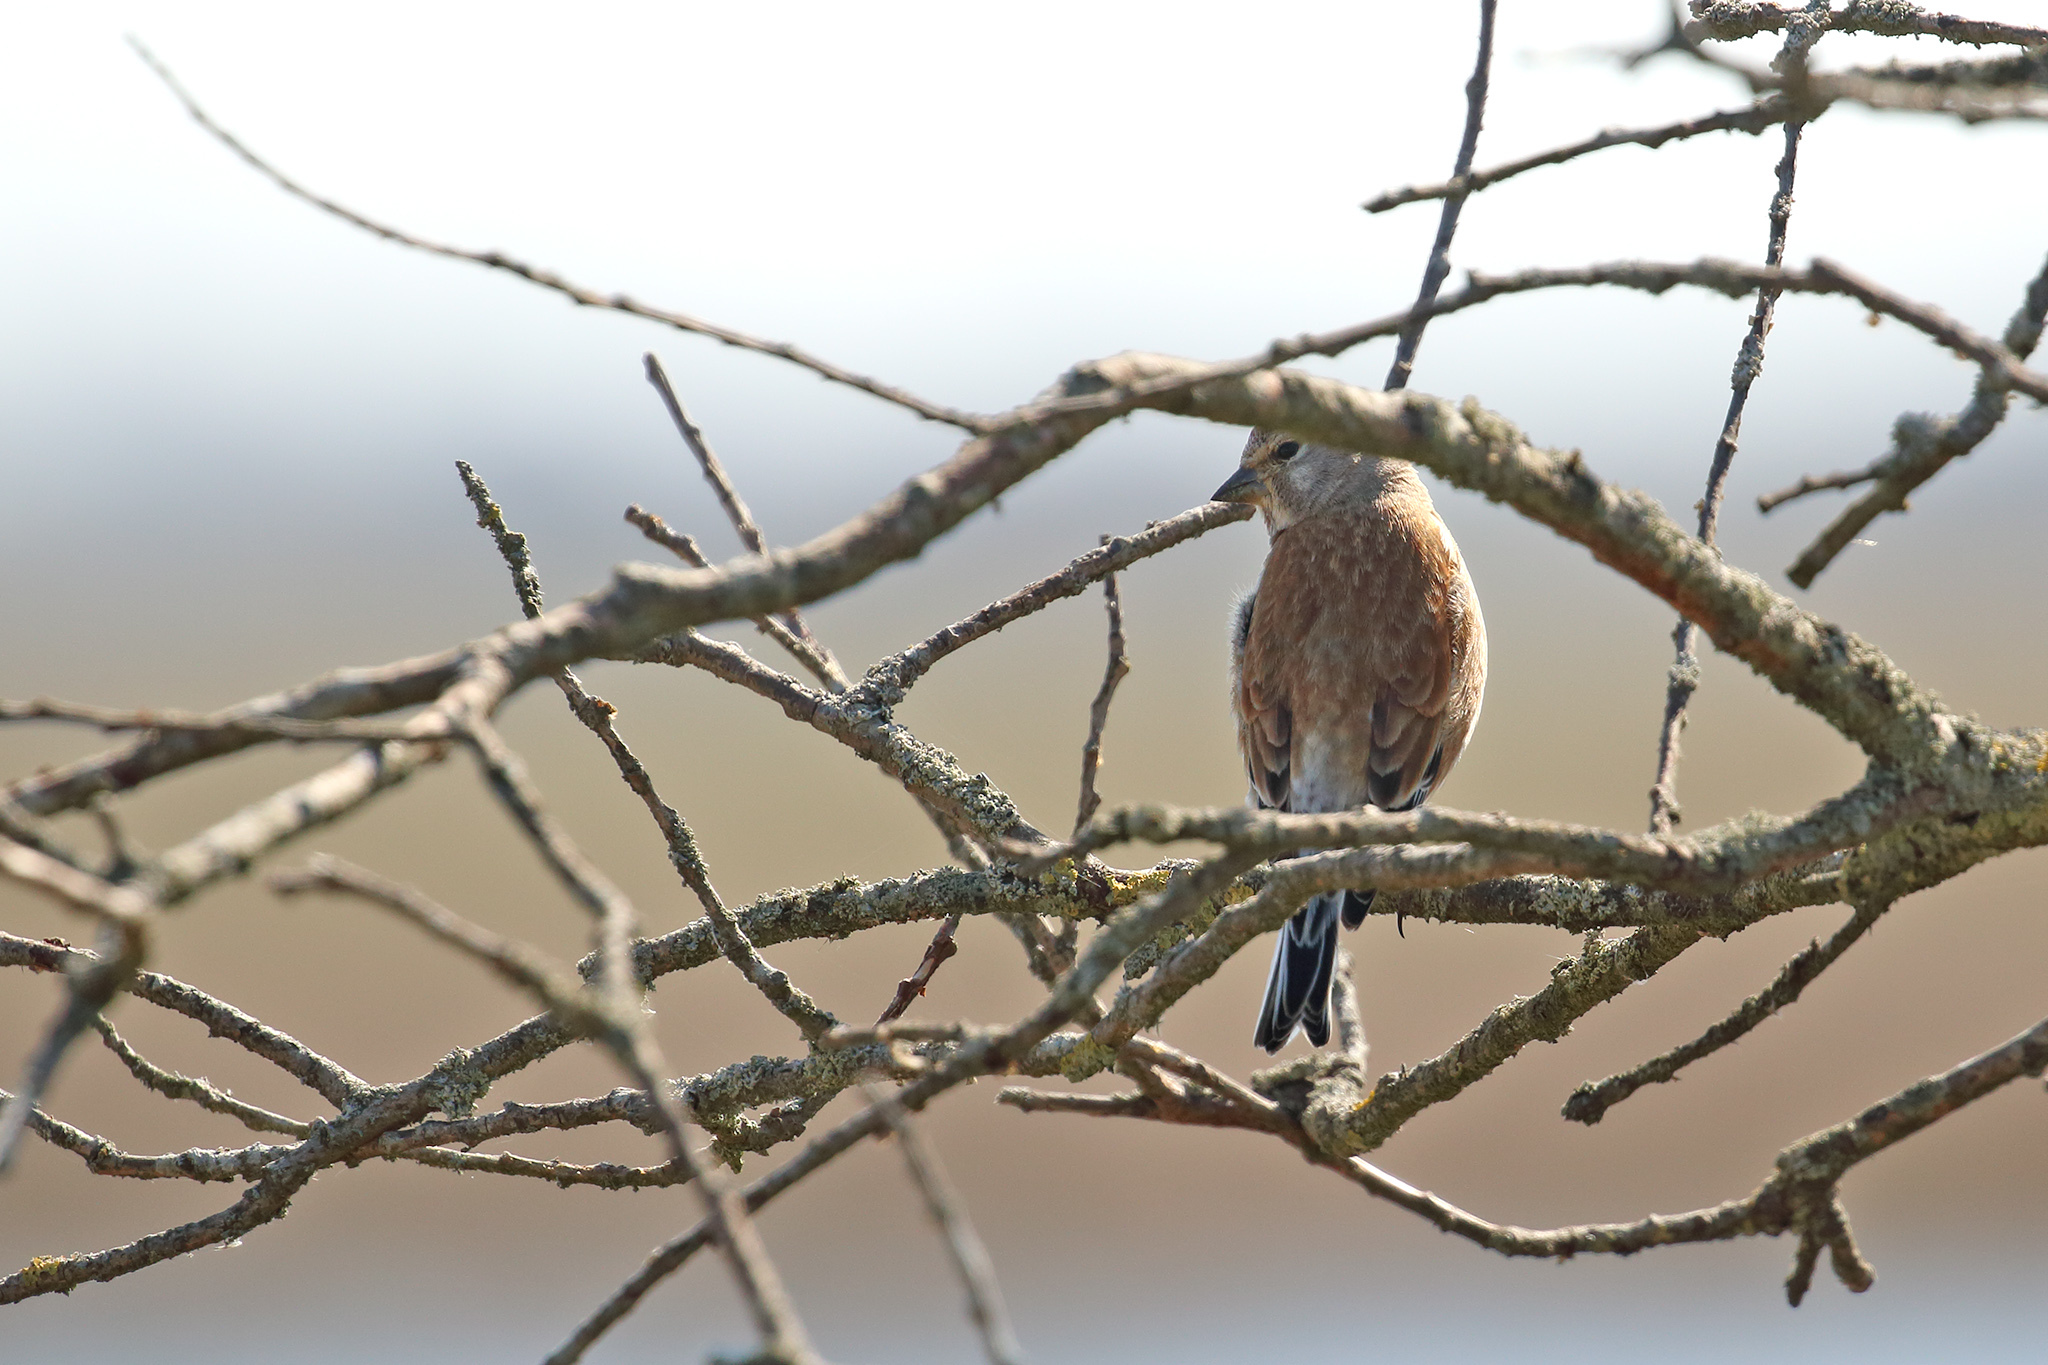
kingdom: Animalia
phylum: Chordata
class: Aves
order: Passeriformes
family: Fringillidae
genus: Linaria
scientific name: Linaria cannabina
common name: Common linnet
